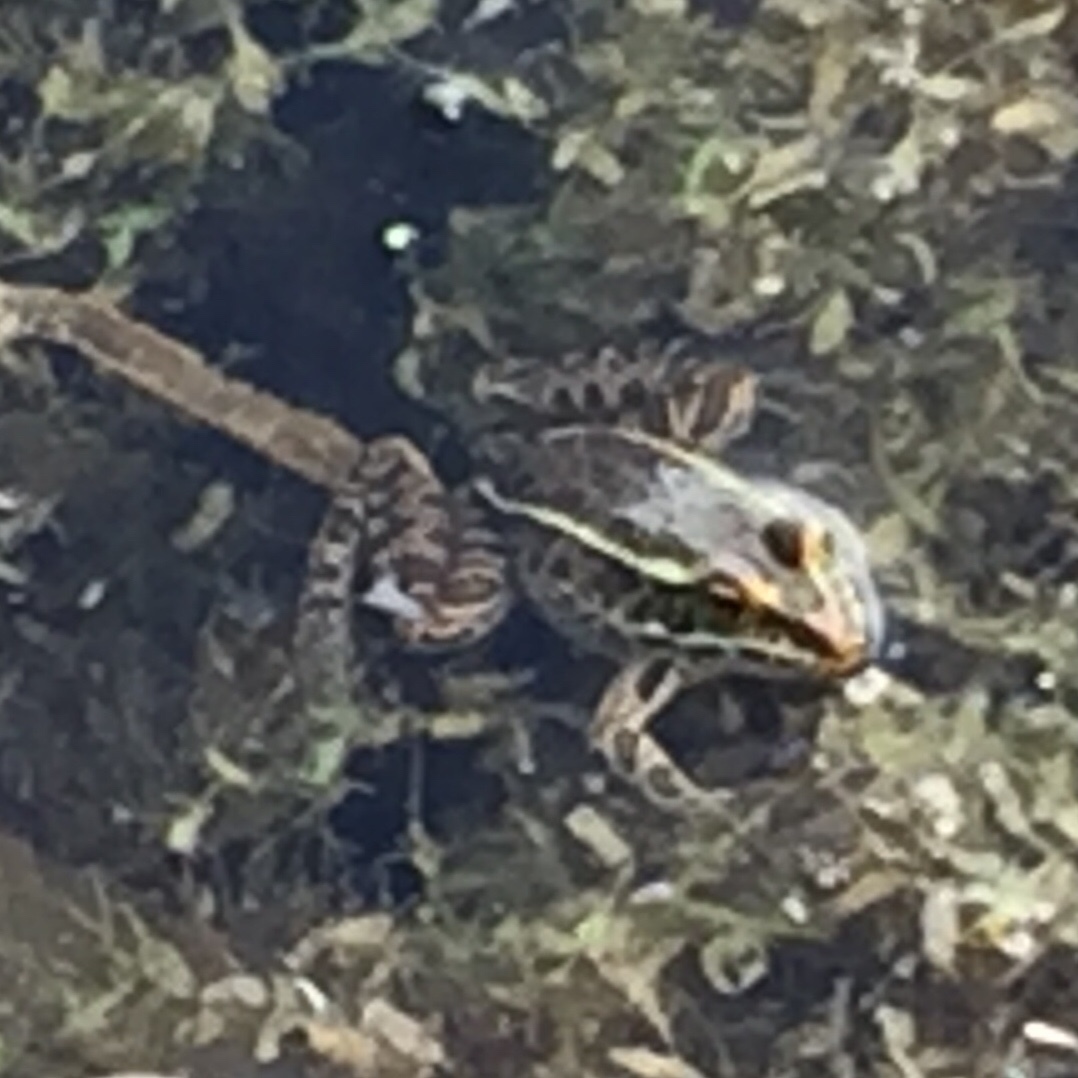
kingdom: Animalia
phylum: Chordata
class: Amphibia
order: Anura
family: Ranidae
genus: Lithobates
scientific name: Lithobates pipiens
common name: Northern leopard frog
